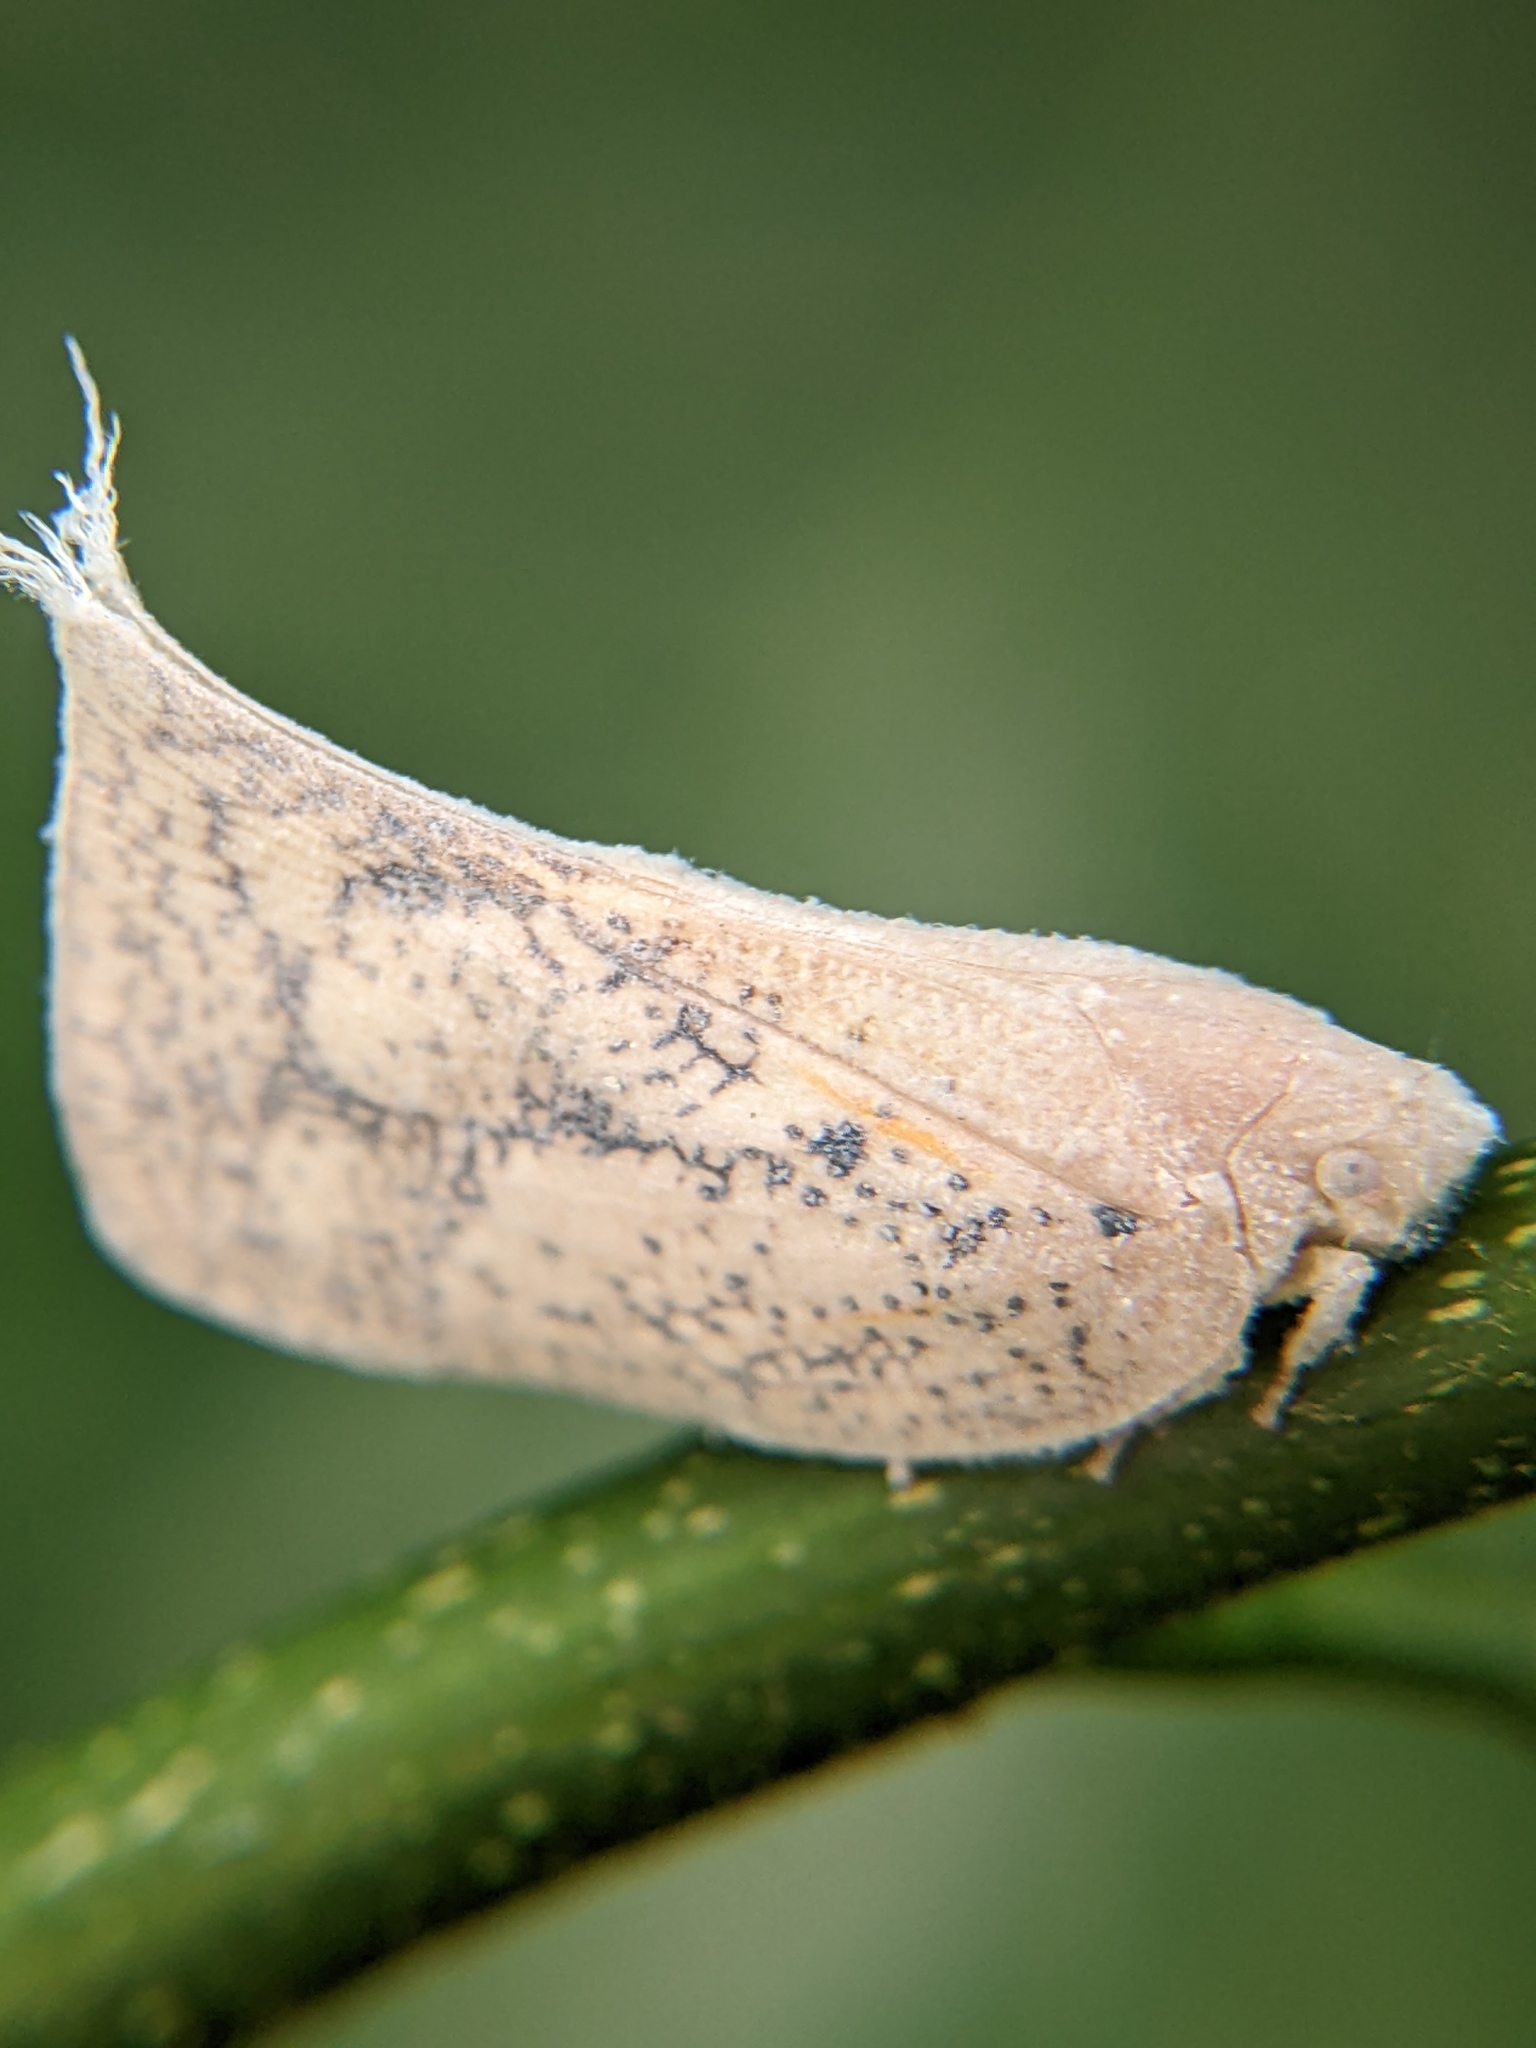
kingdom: Animalia
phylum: Arthropoda
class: Insecta
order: Hemiptera
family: Flatidae
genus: Lawana
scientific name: Lawana conspersa
